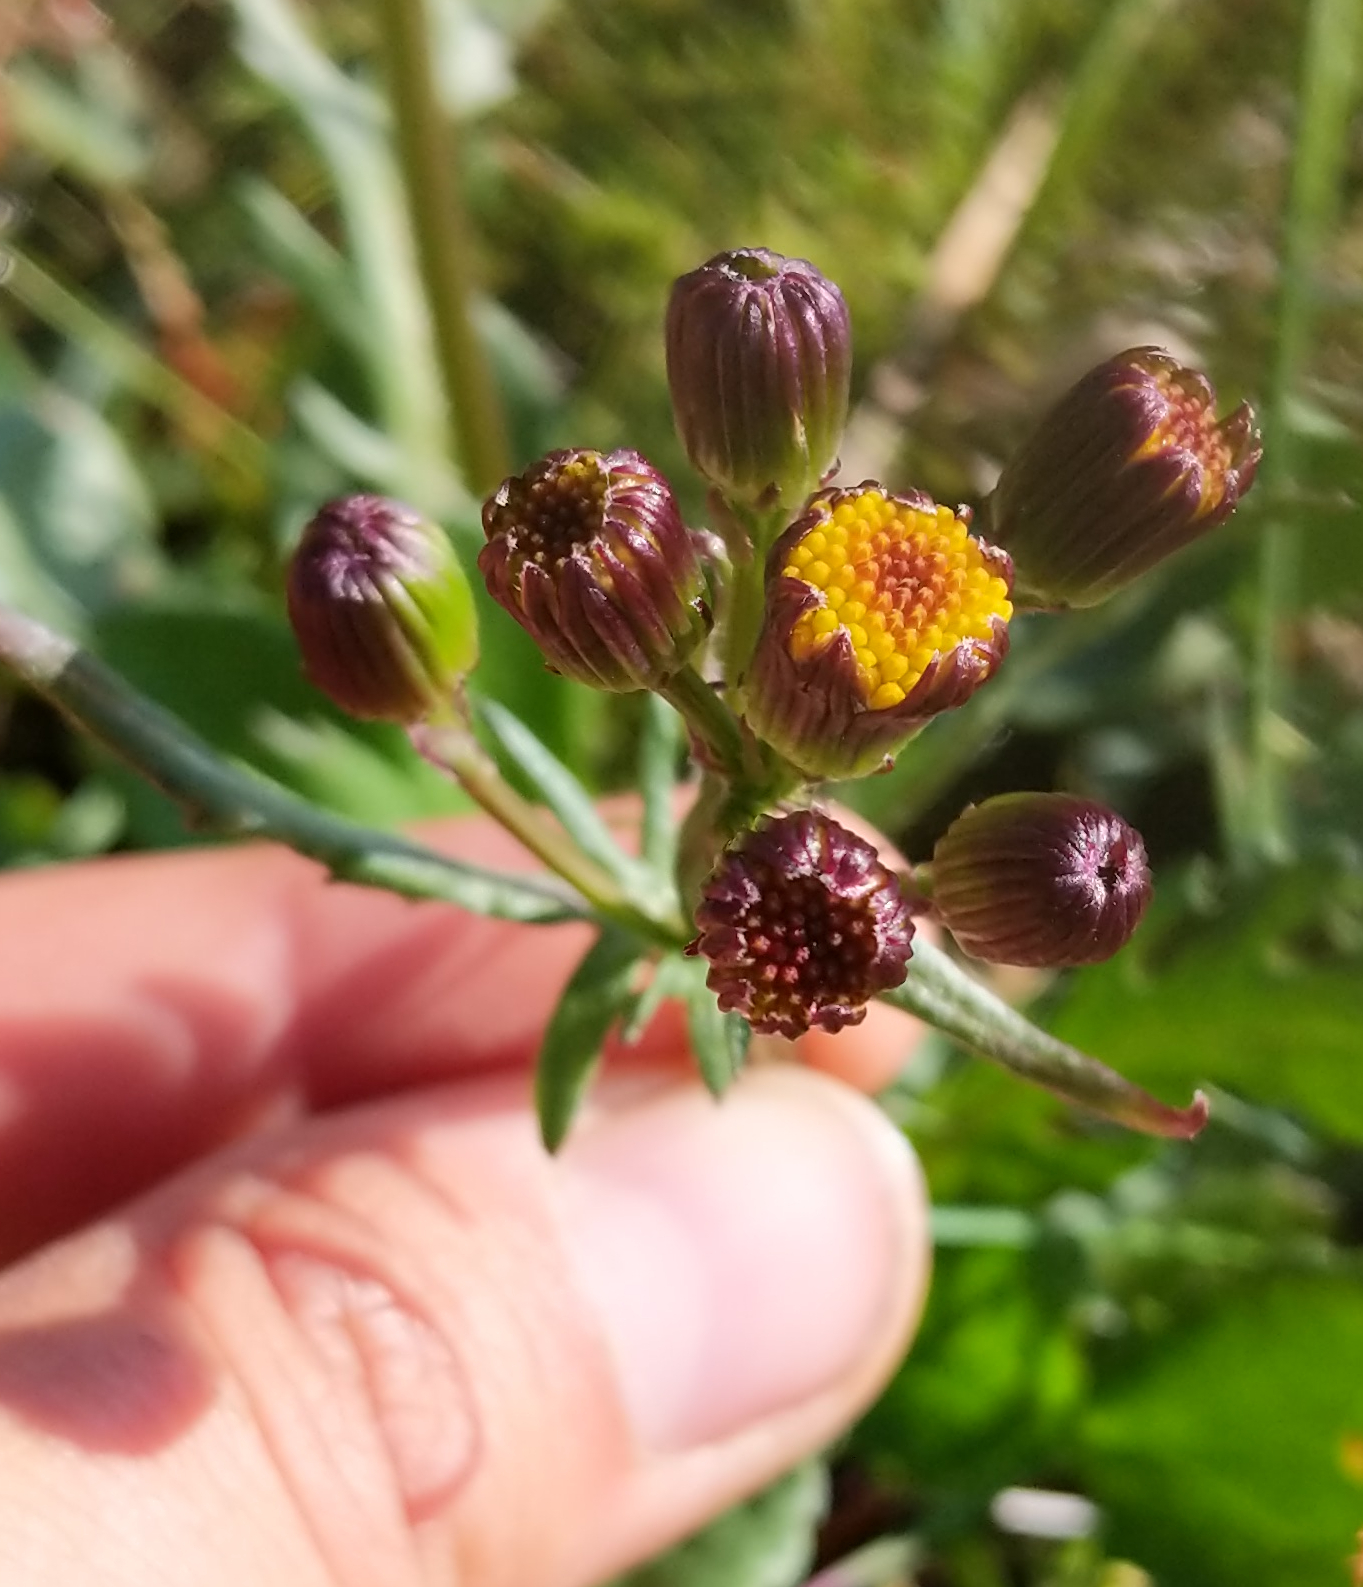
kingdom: Plantae
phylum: Tracheophyta
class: Magnoliopsida
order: Asterales
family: Asteraceae
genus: Packera
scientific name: Packera pauciflora
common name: Alpine groundsel
